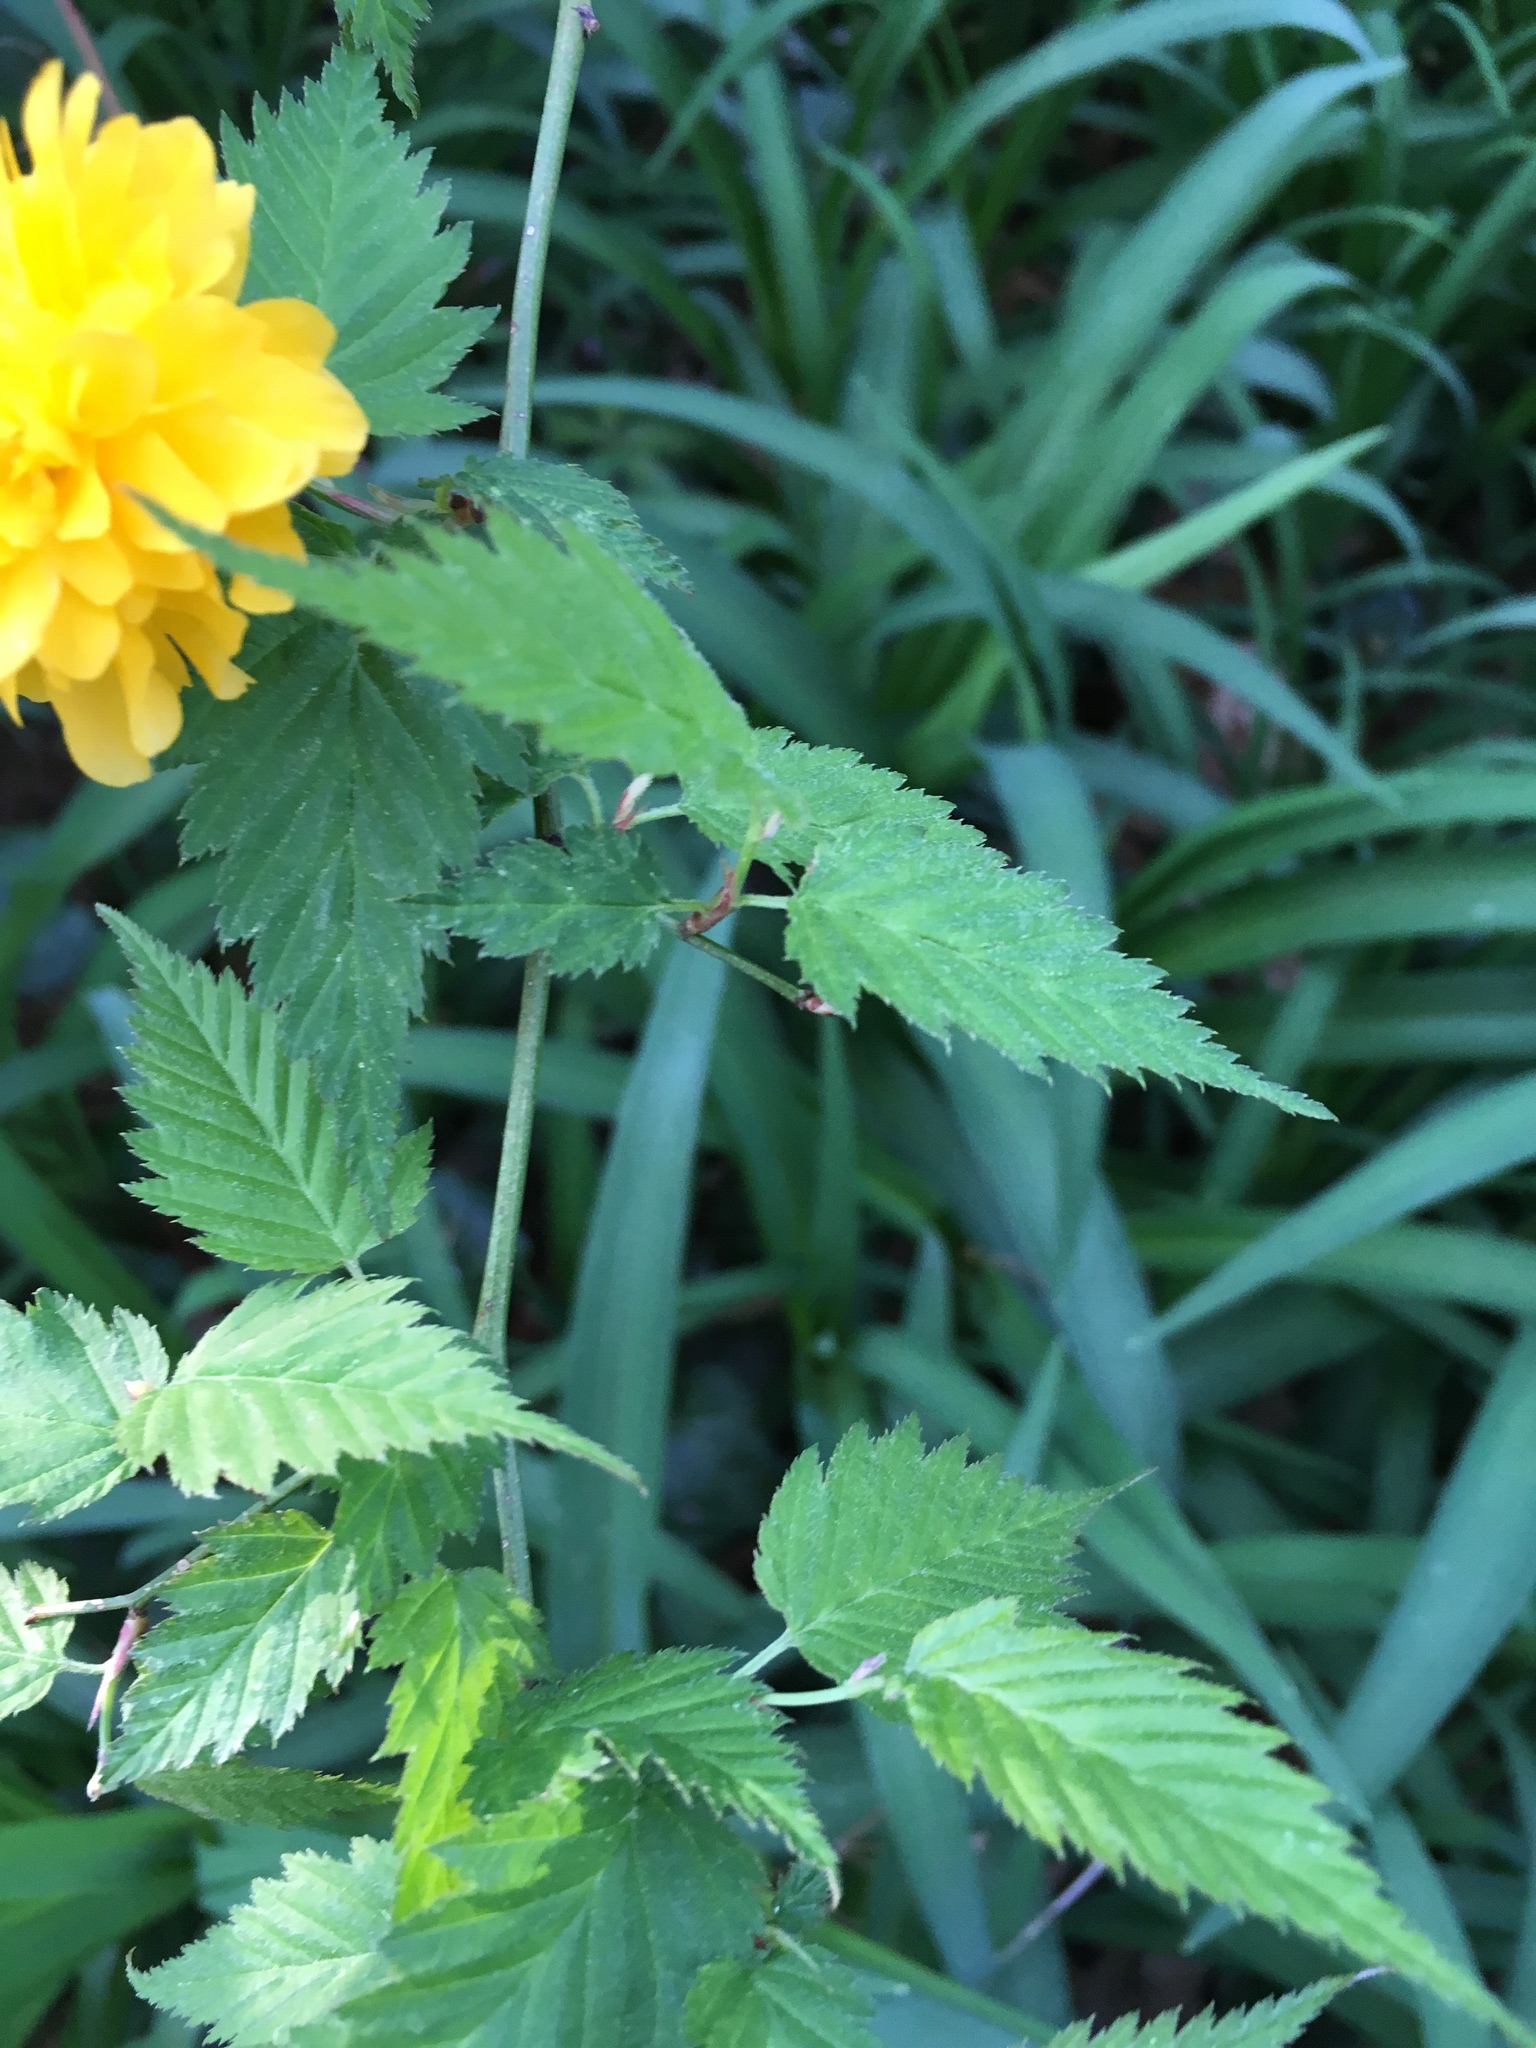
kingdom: Plantae
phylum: Tracheophyta
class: Magnoliopsida
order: Rosales
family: Rosaceae
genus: Kerria
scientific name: Kerria japonica
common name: Japanese kerria
